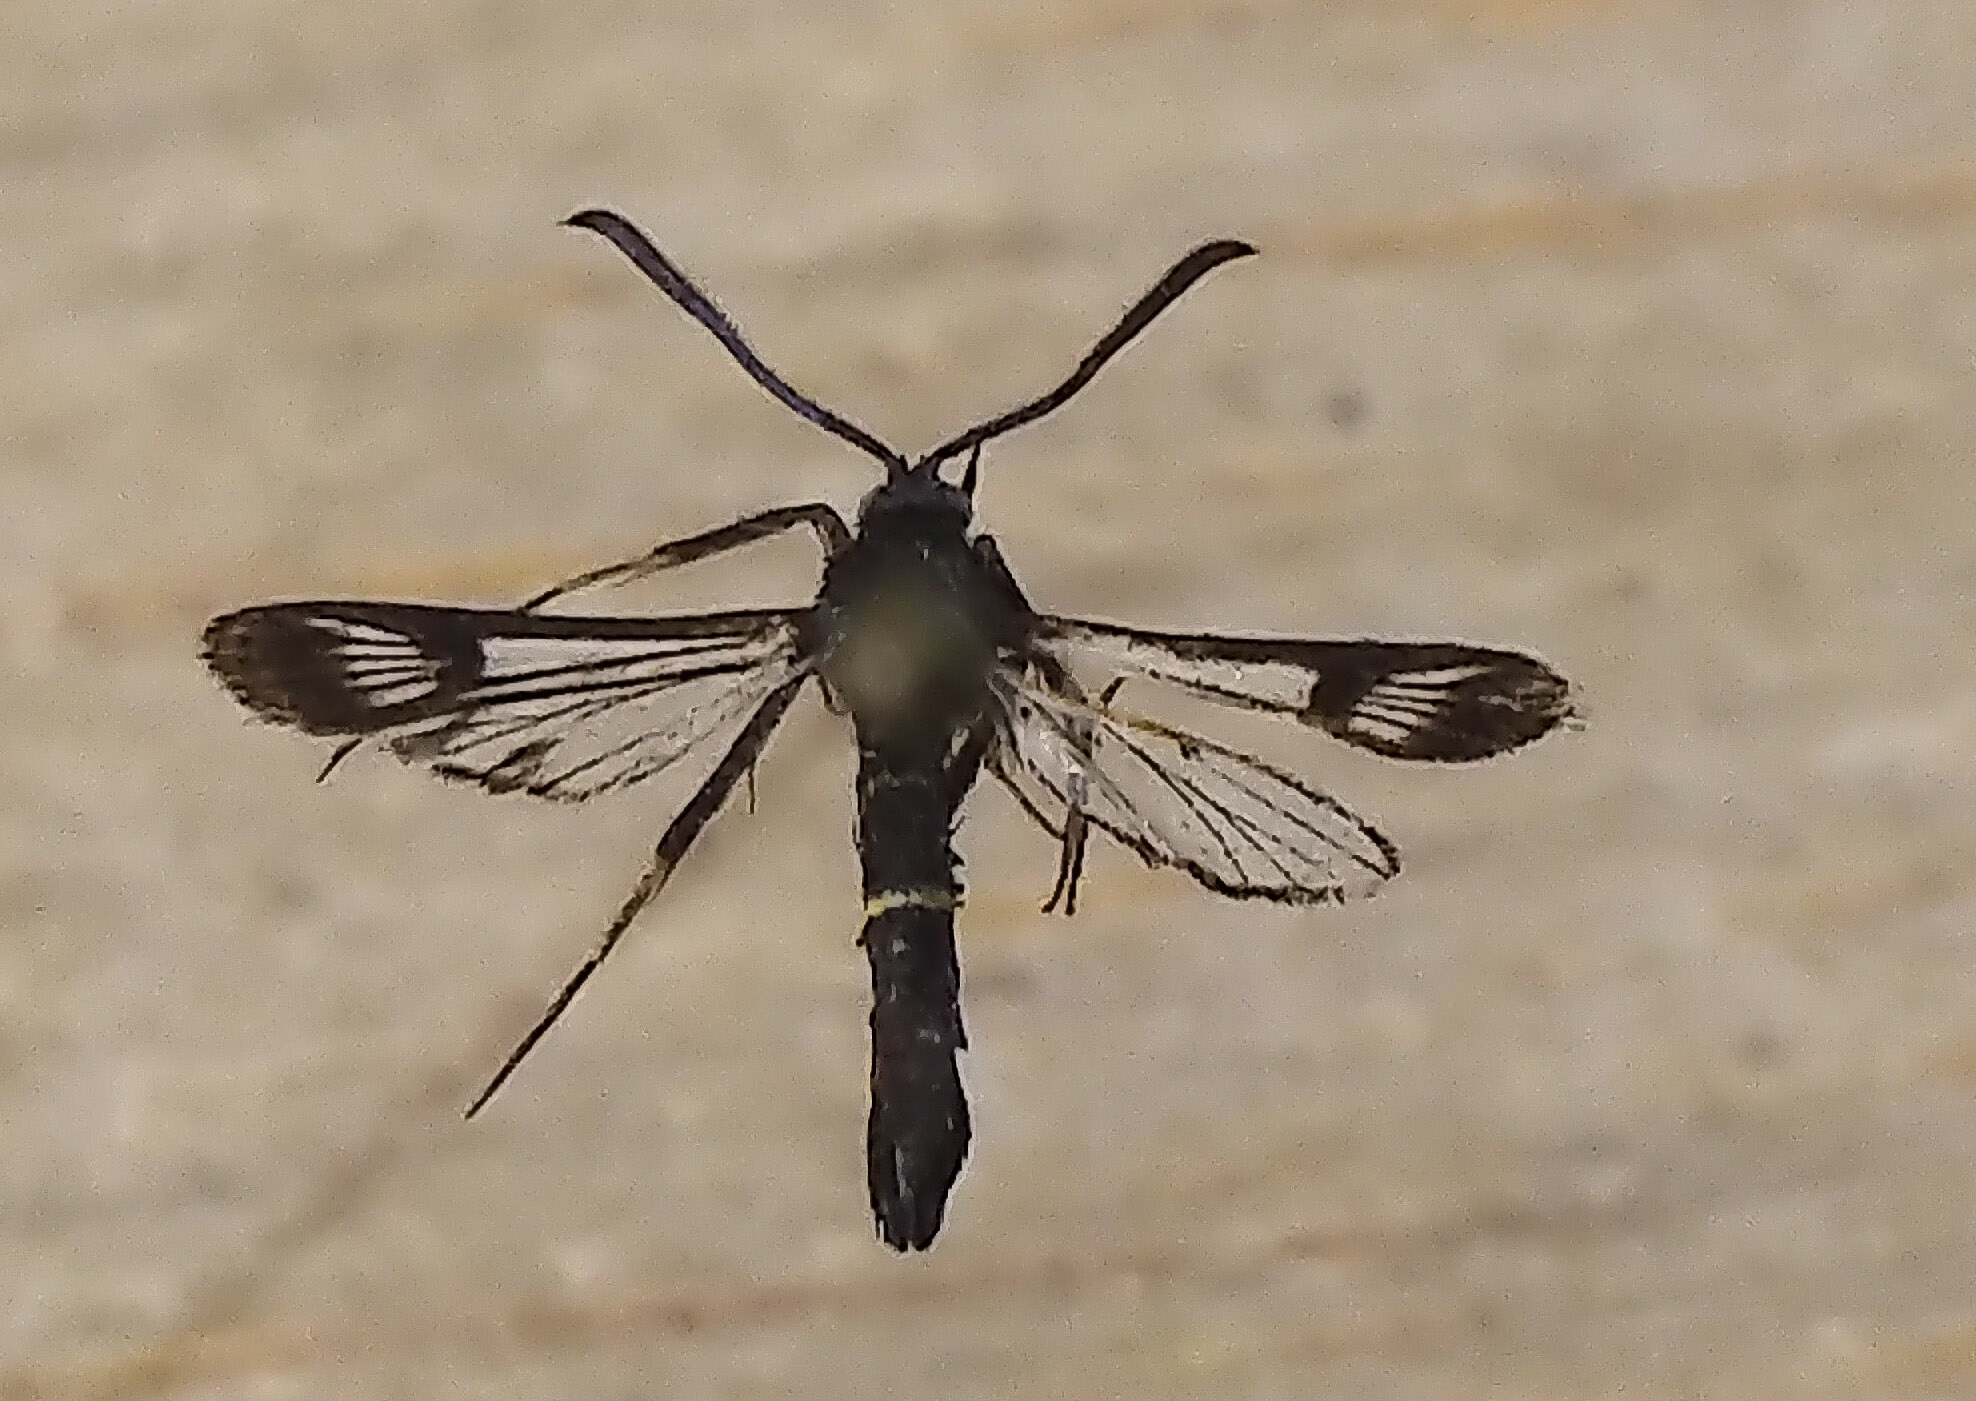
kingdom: Animalia
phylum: Arthropoda
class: Insecta
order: Lepidoptera
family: Sesiidae
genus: Synanthedon
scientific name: Synanthedon helenis
